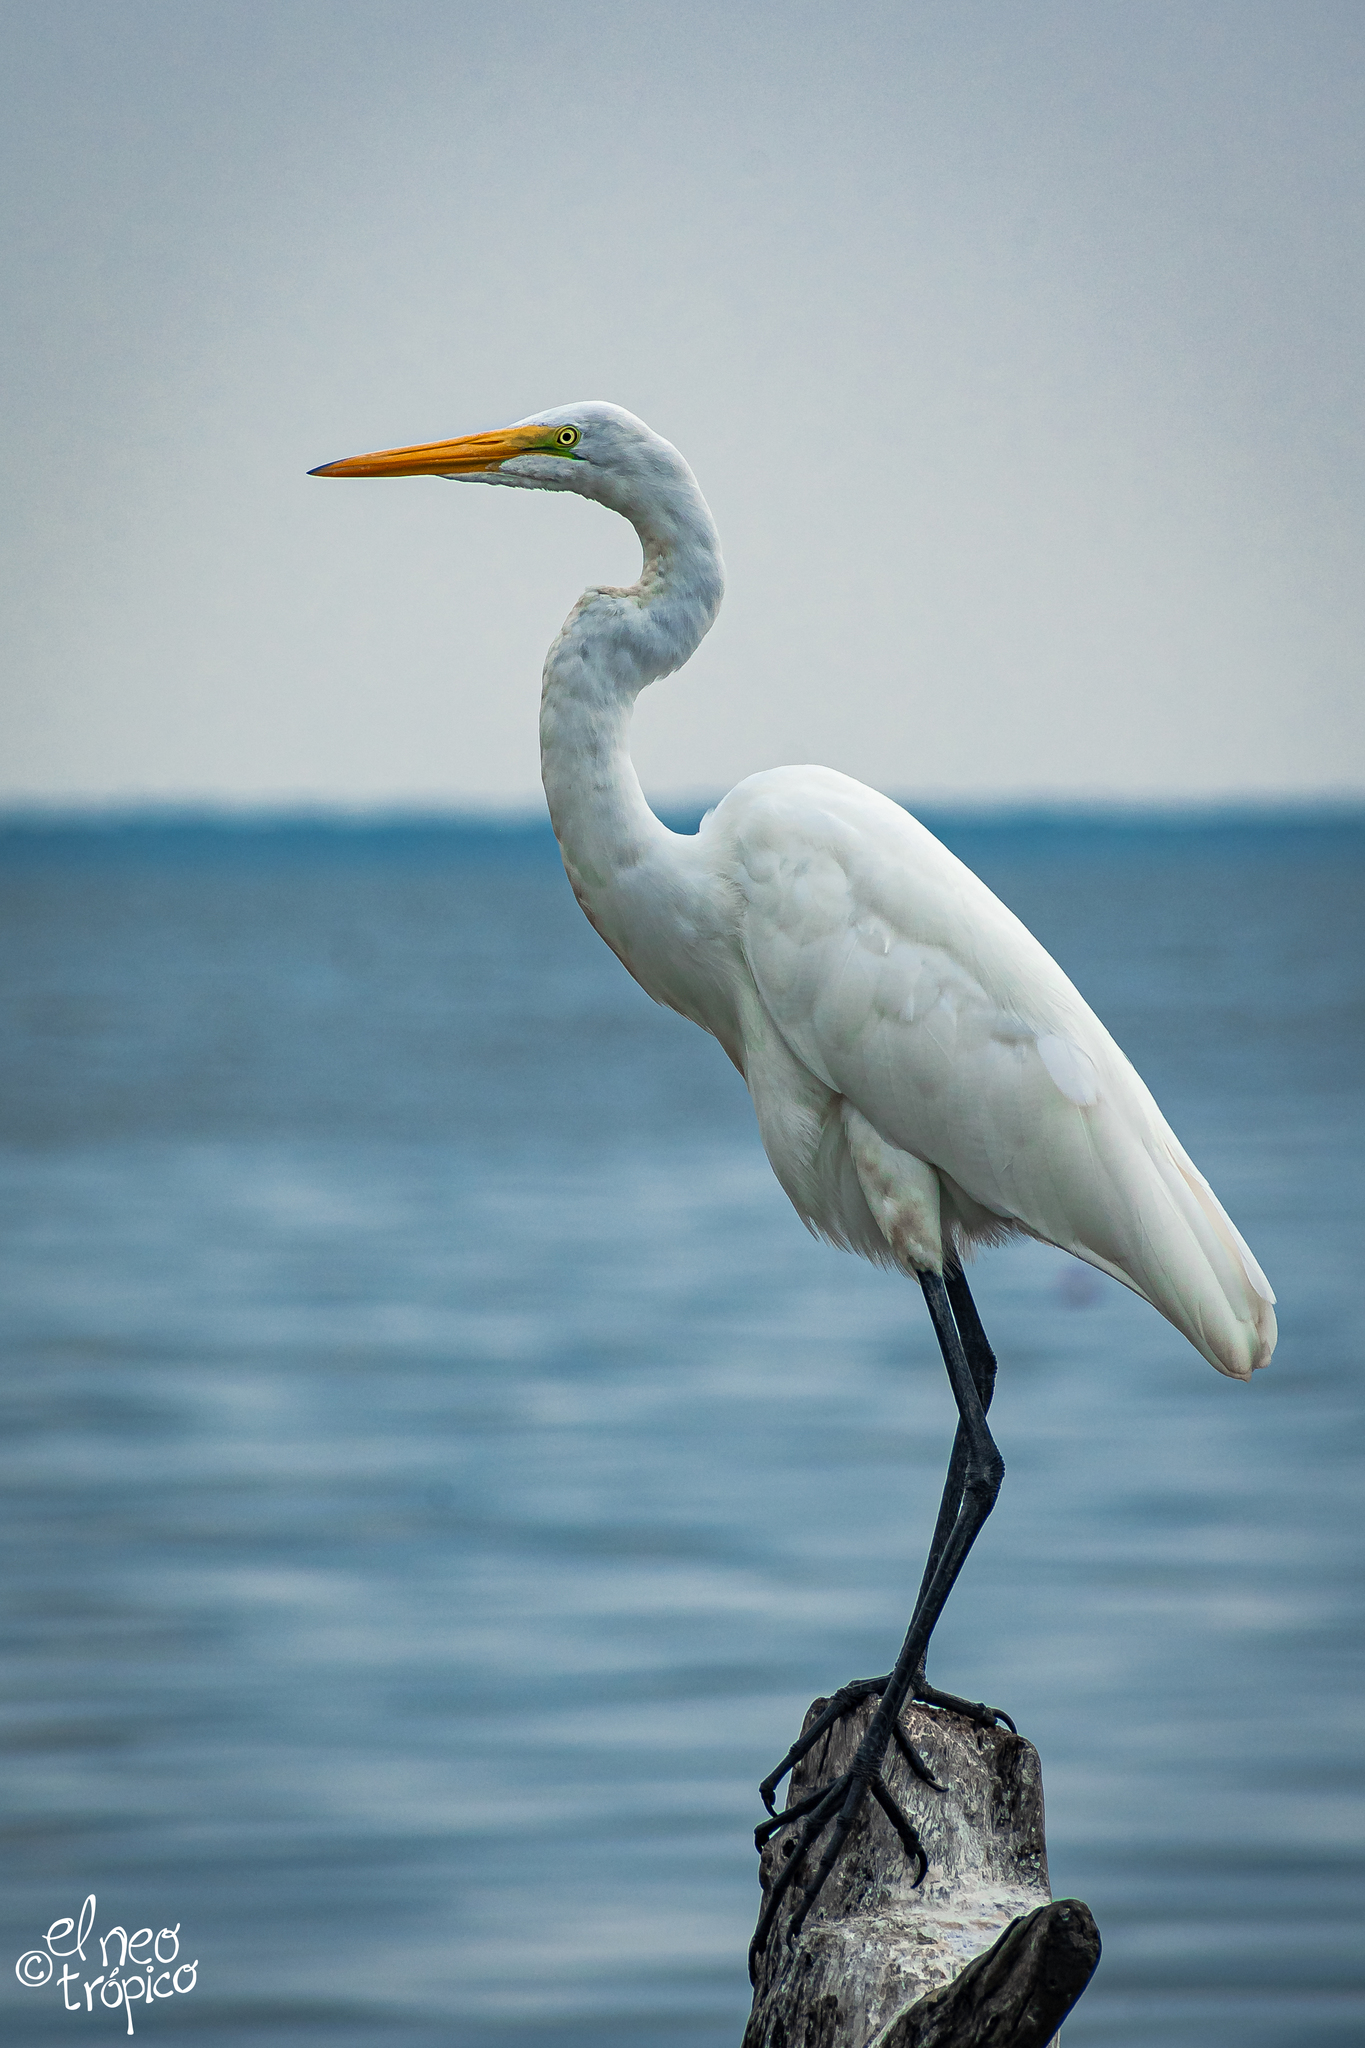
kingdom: Animalia
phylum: Chordata
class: Aves
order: Pelecaniformes
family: Ardeidae
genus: Ardea
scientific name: Ardea alba
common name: Great egret
